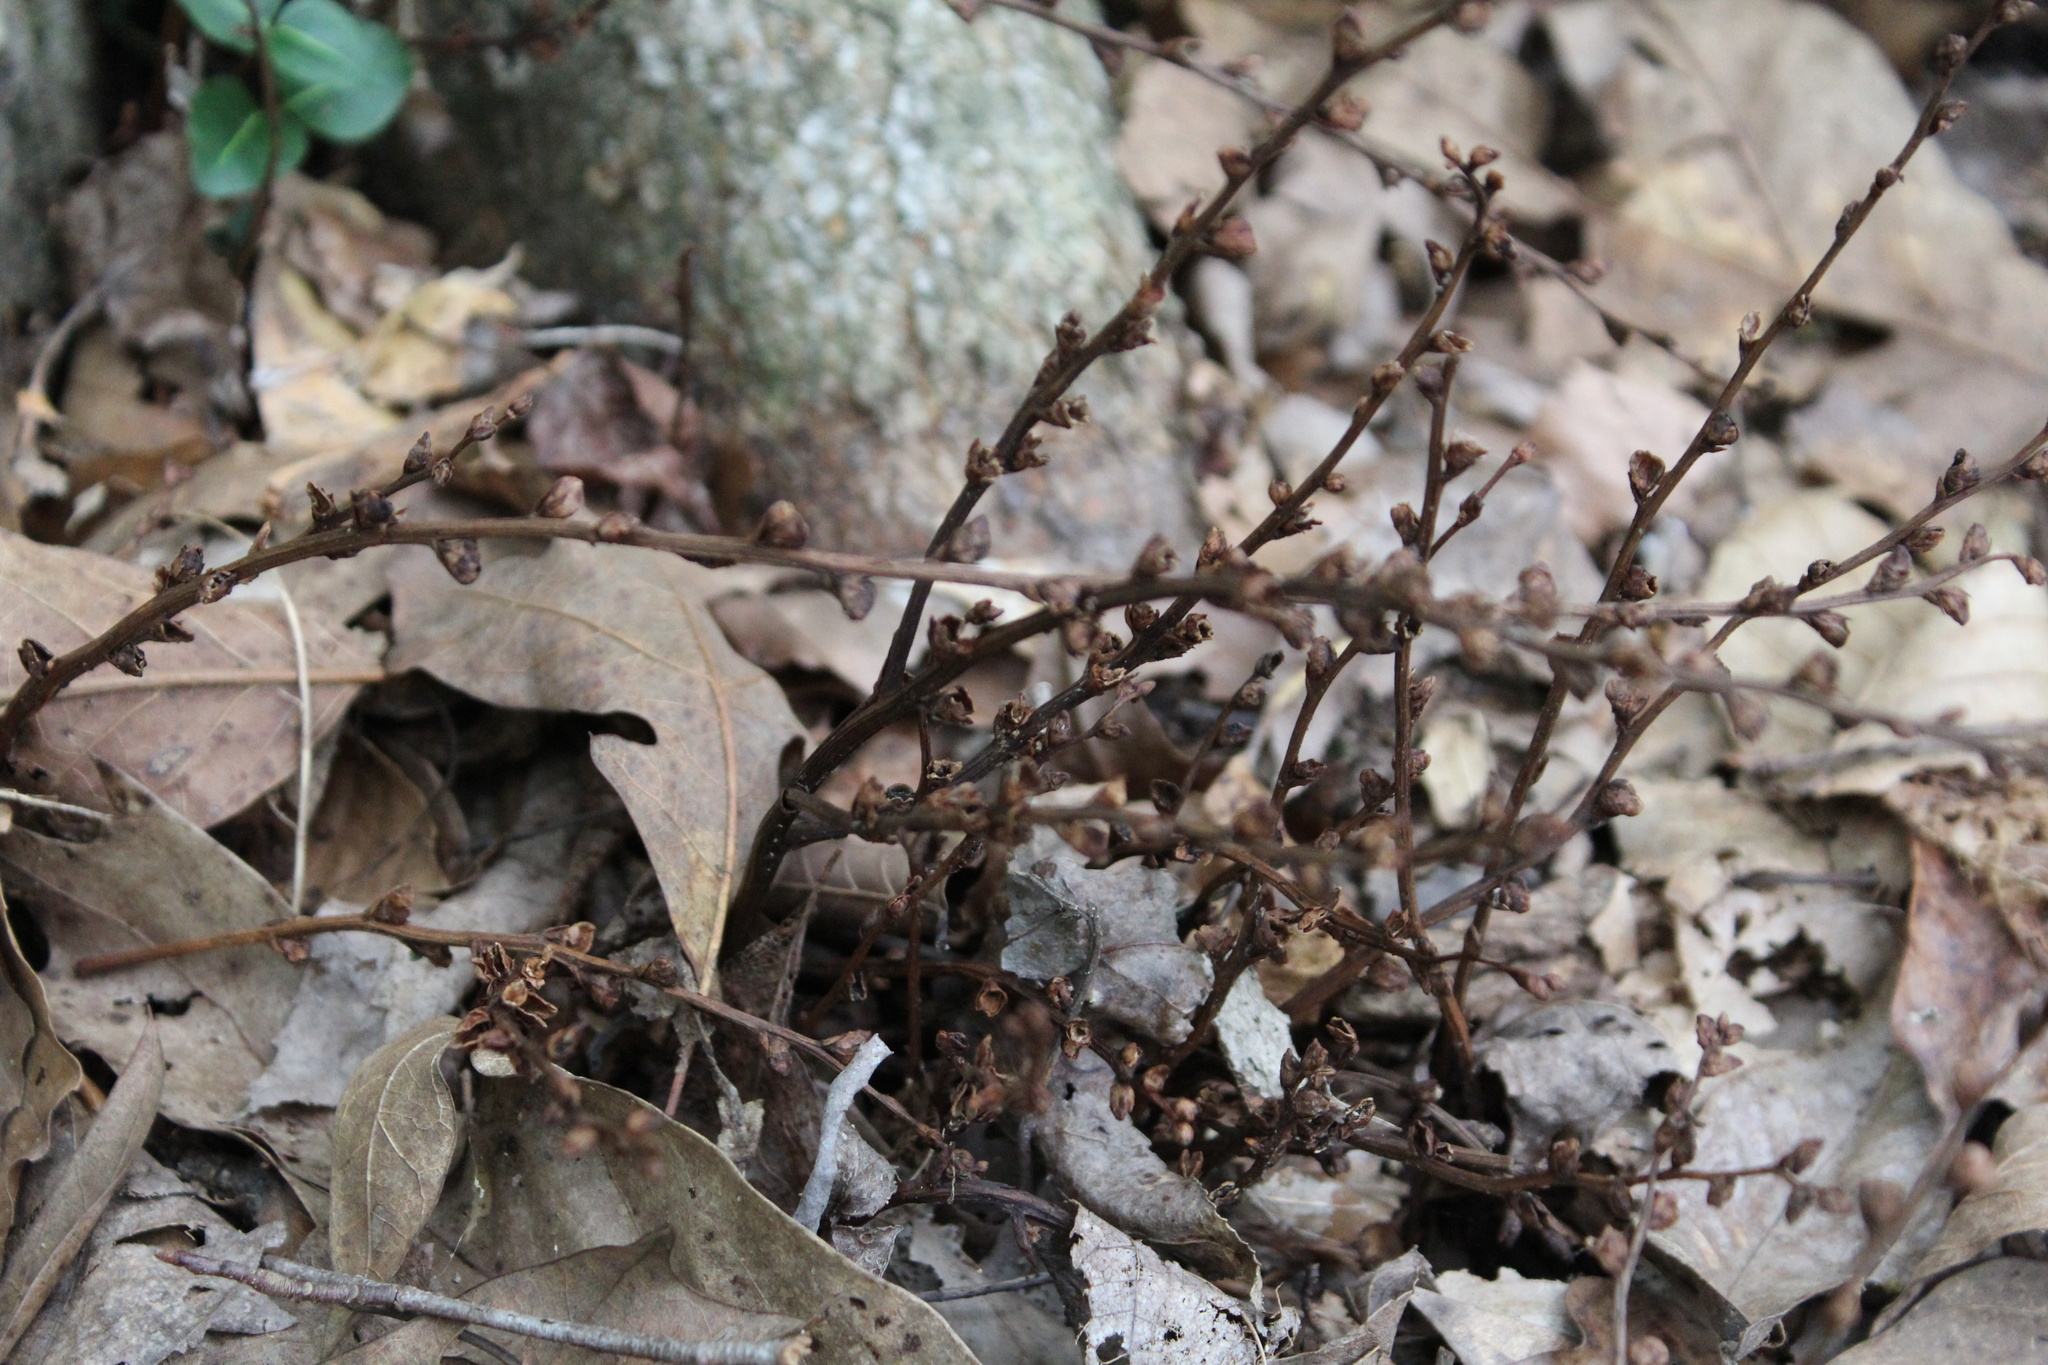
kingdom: Plantae
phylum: Tracheophyta
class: Magnoliopsida
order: Lamiales
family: Orobanchaceae
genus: Epifagus
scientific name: Epifagus virginiana
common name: Beechdrops
